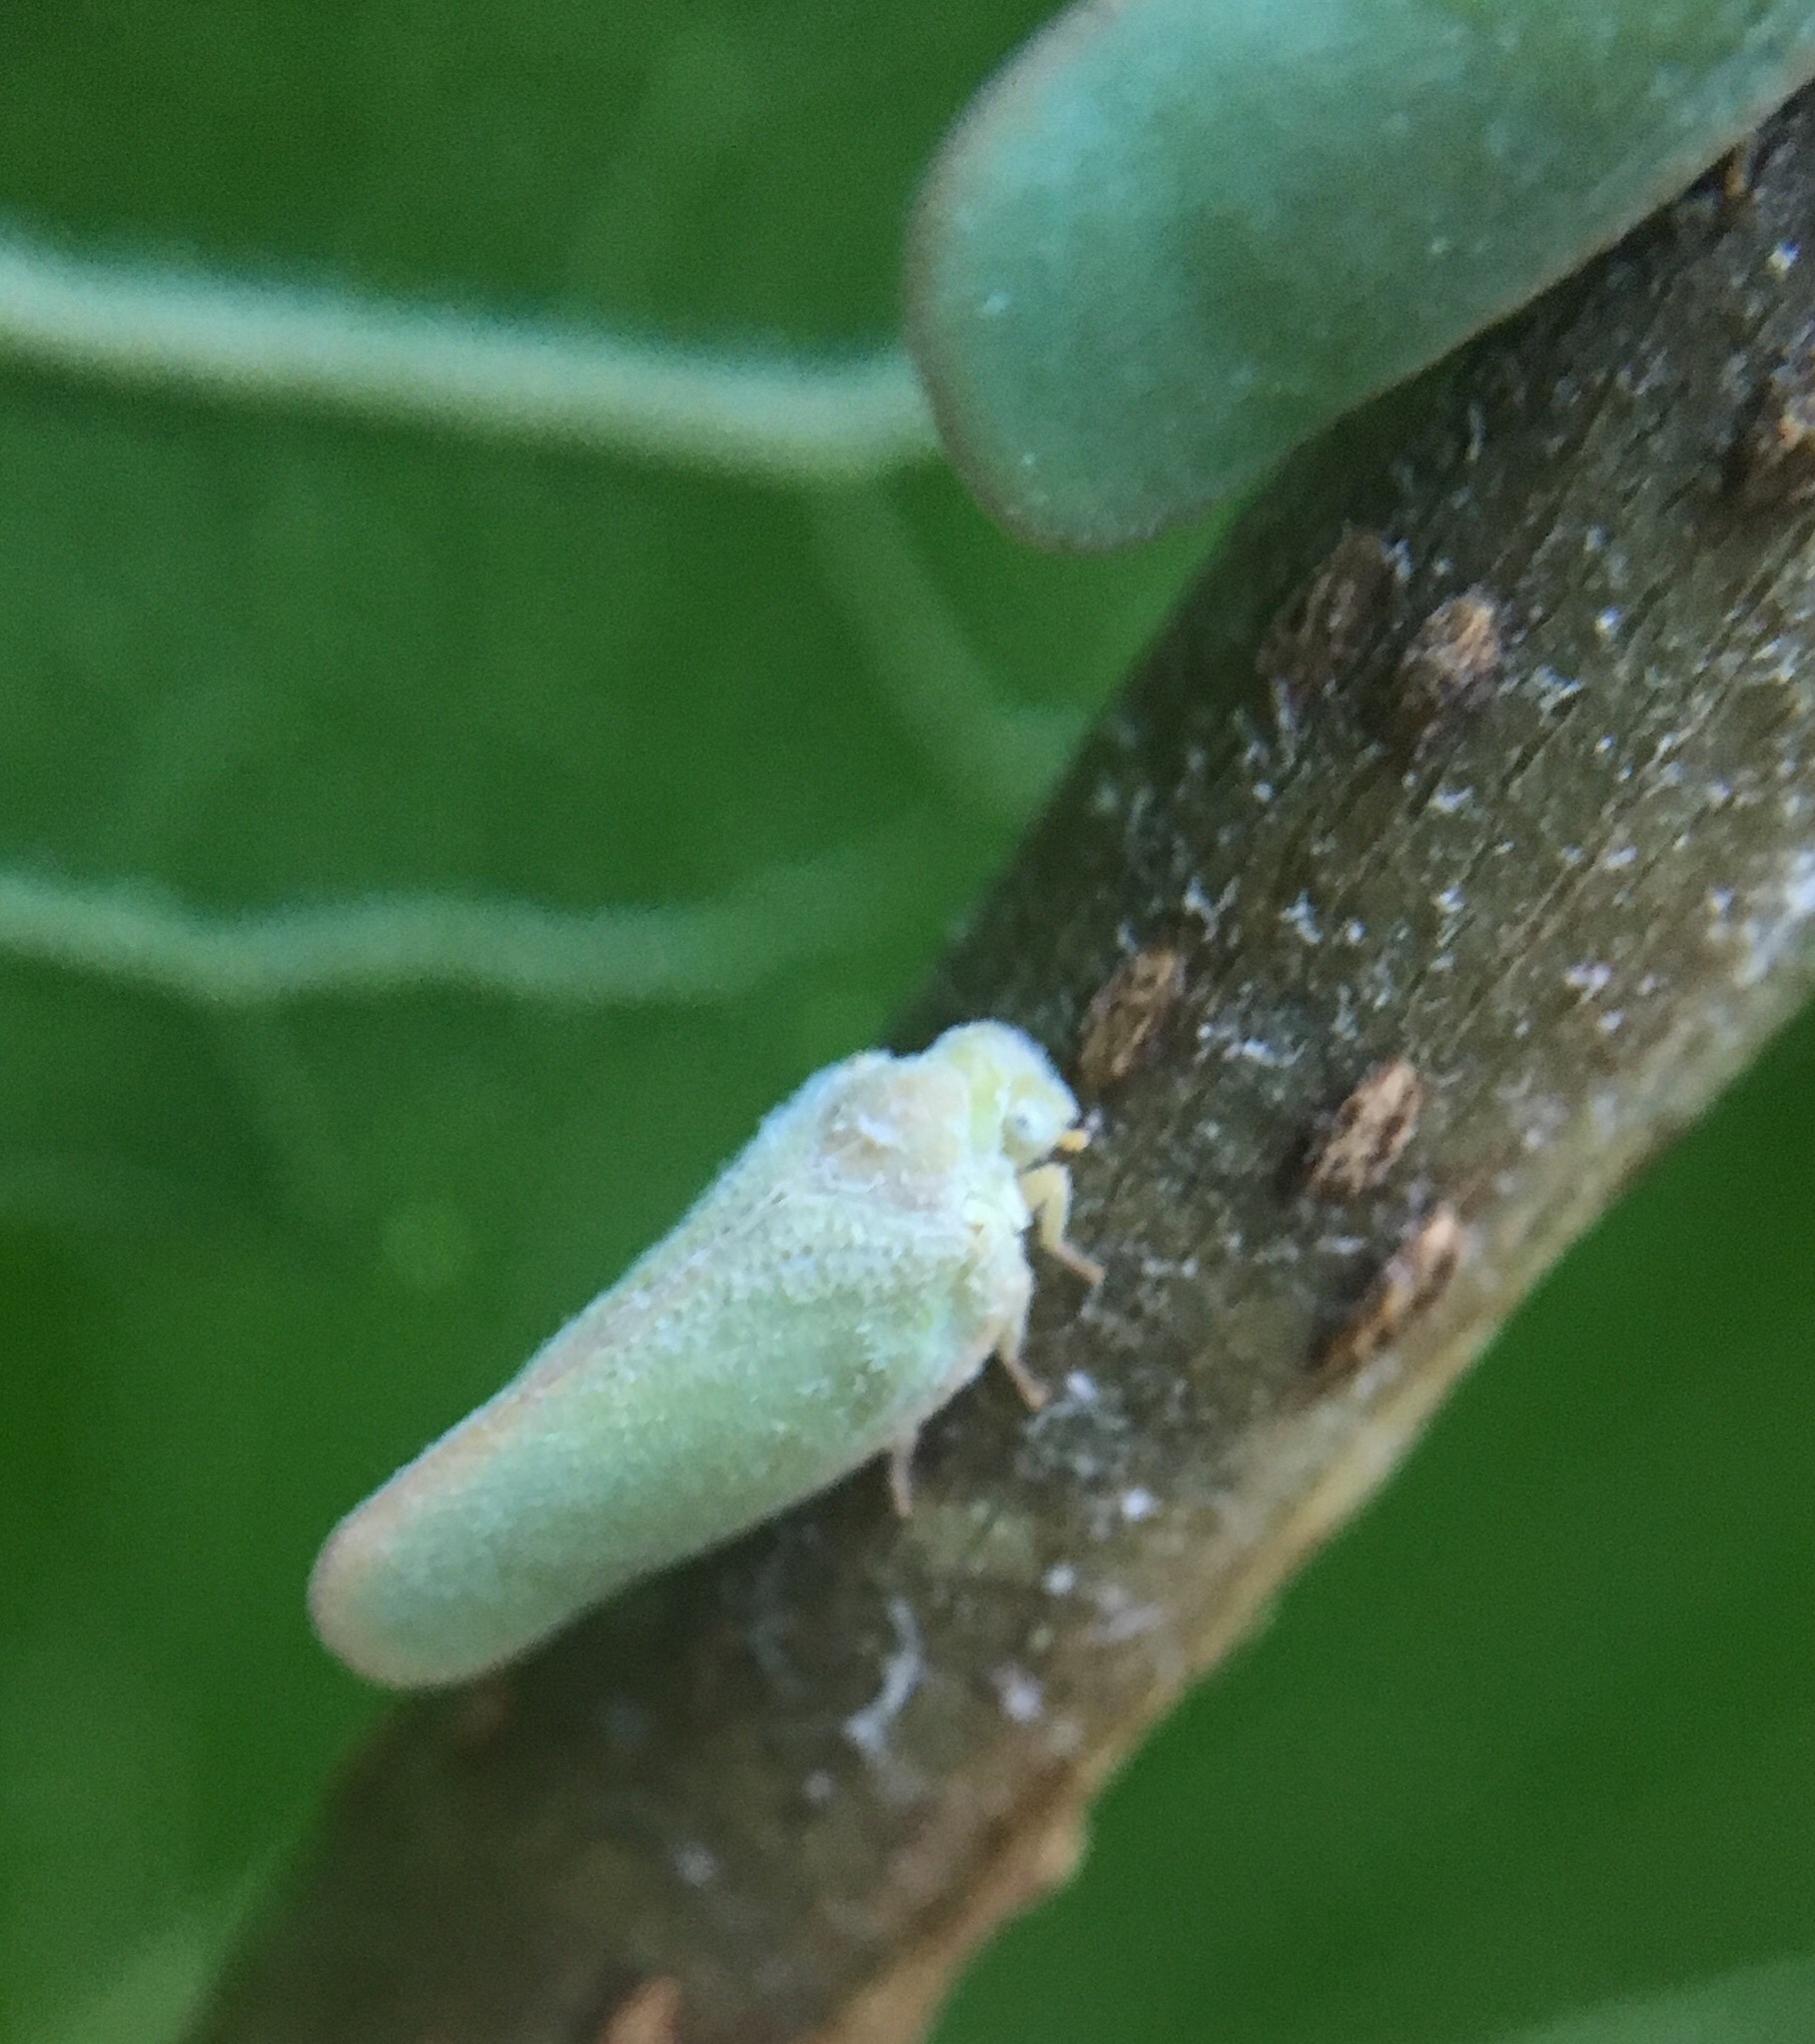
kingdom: Animalia
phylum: Arthropoda
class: Insecta
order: Hemiptera
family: Flatidae
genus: Ormenoides
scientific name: Ormenoides venusta
